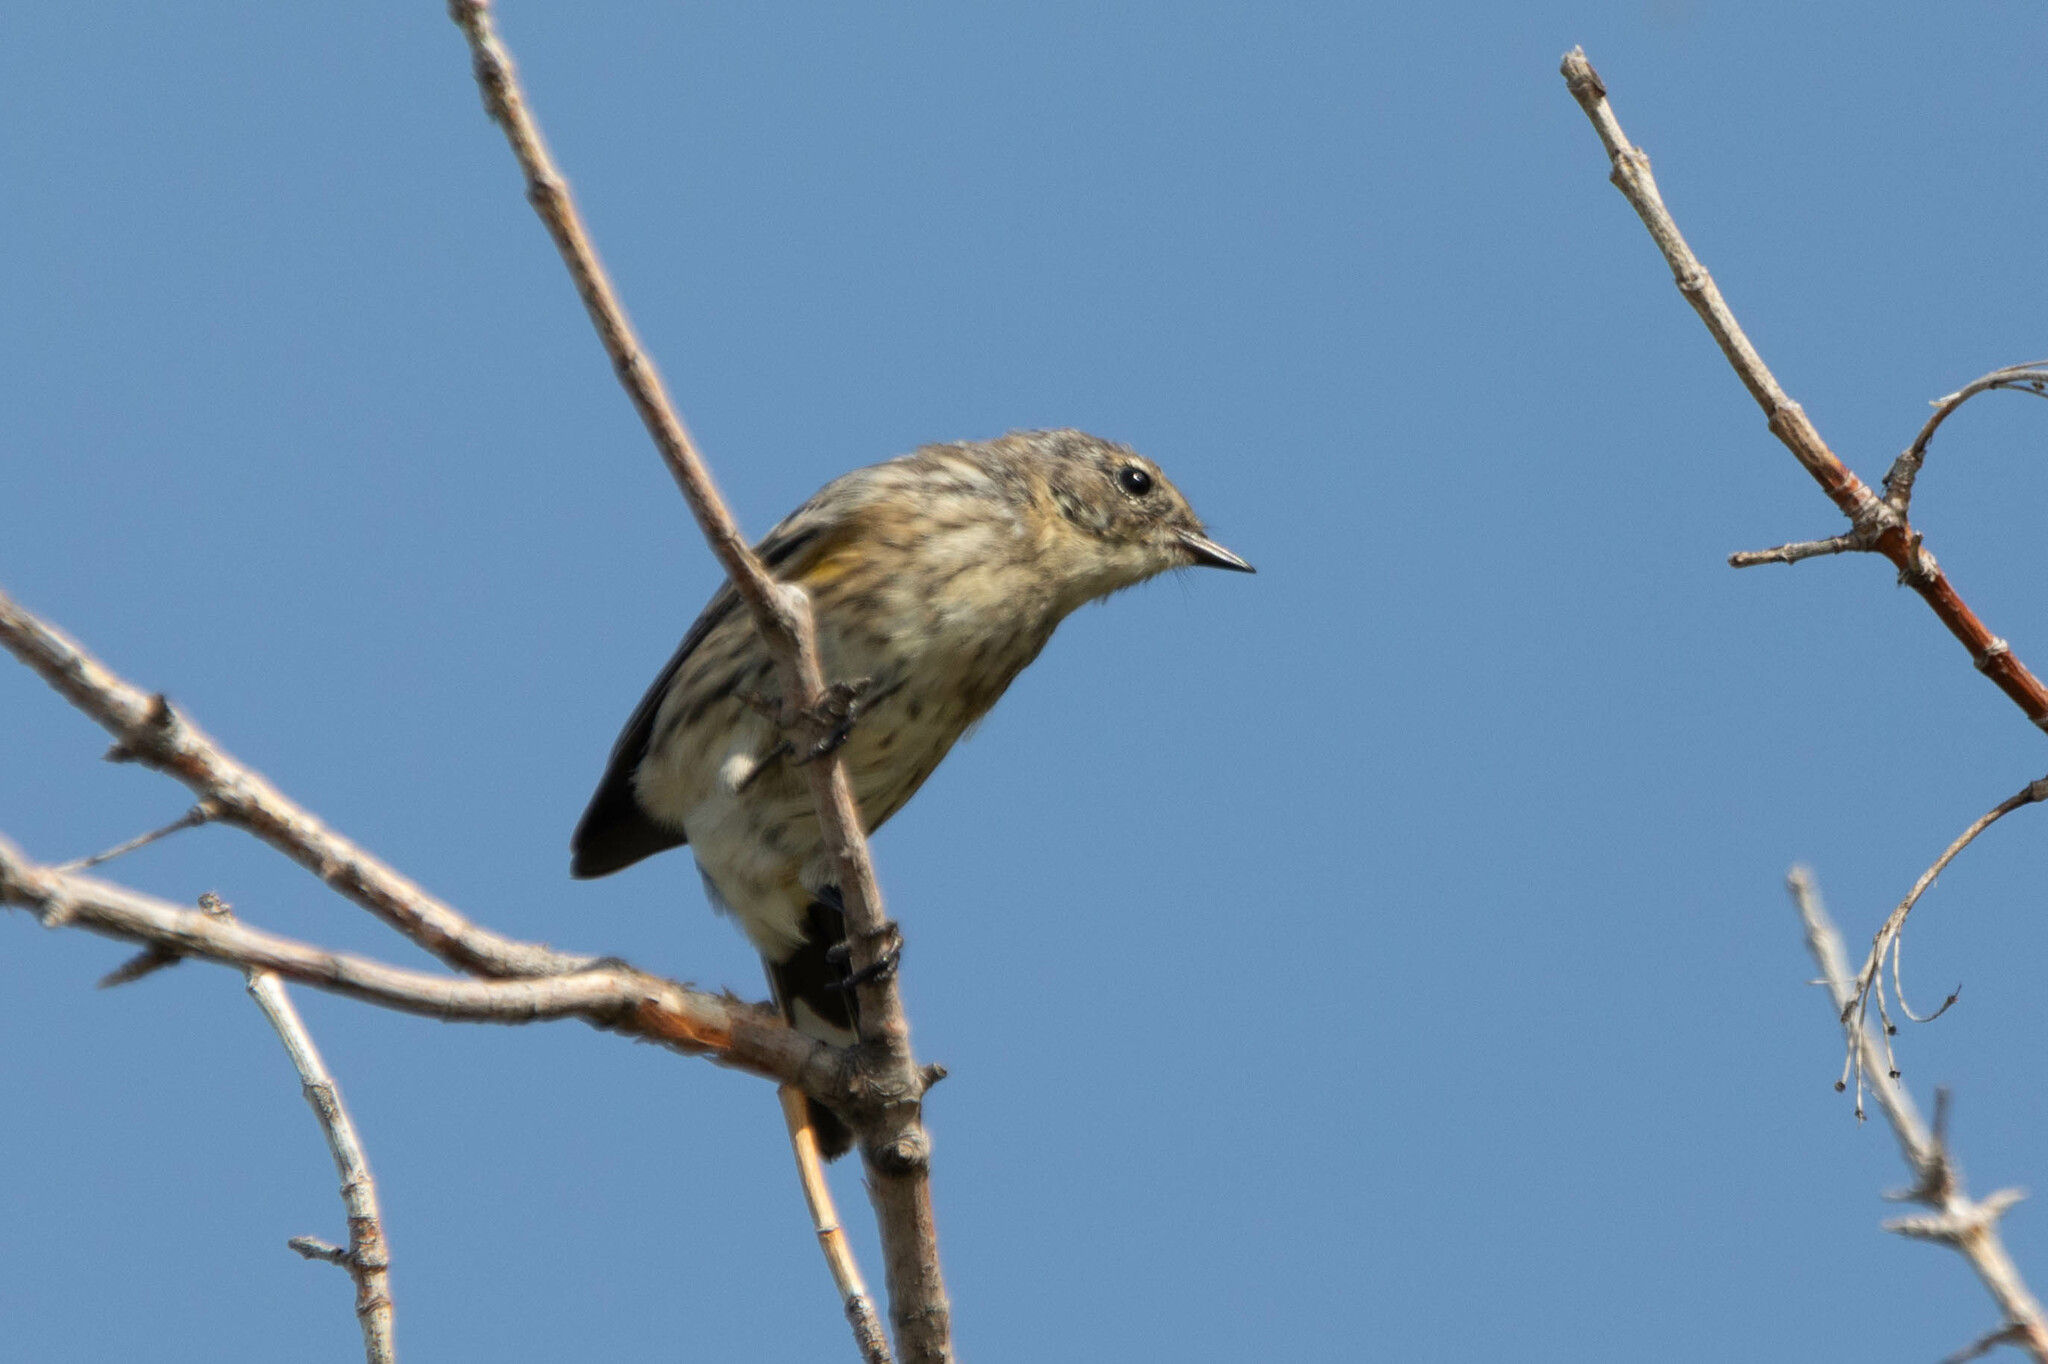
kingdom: Animalia
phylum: Chordata
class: Aves
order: Passeriformes
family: Parulidae
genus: Setophaga
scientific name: Setophaga coronata
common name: Myrtle warbler
